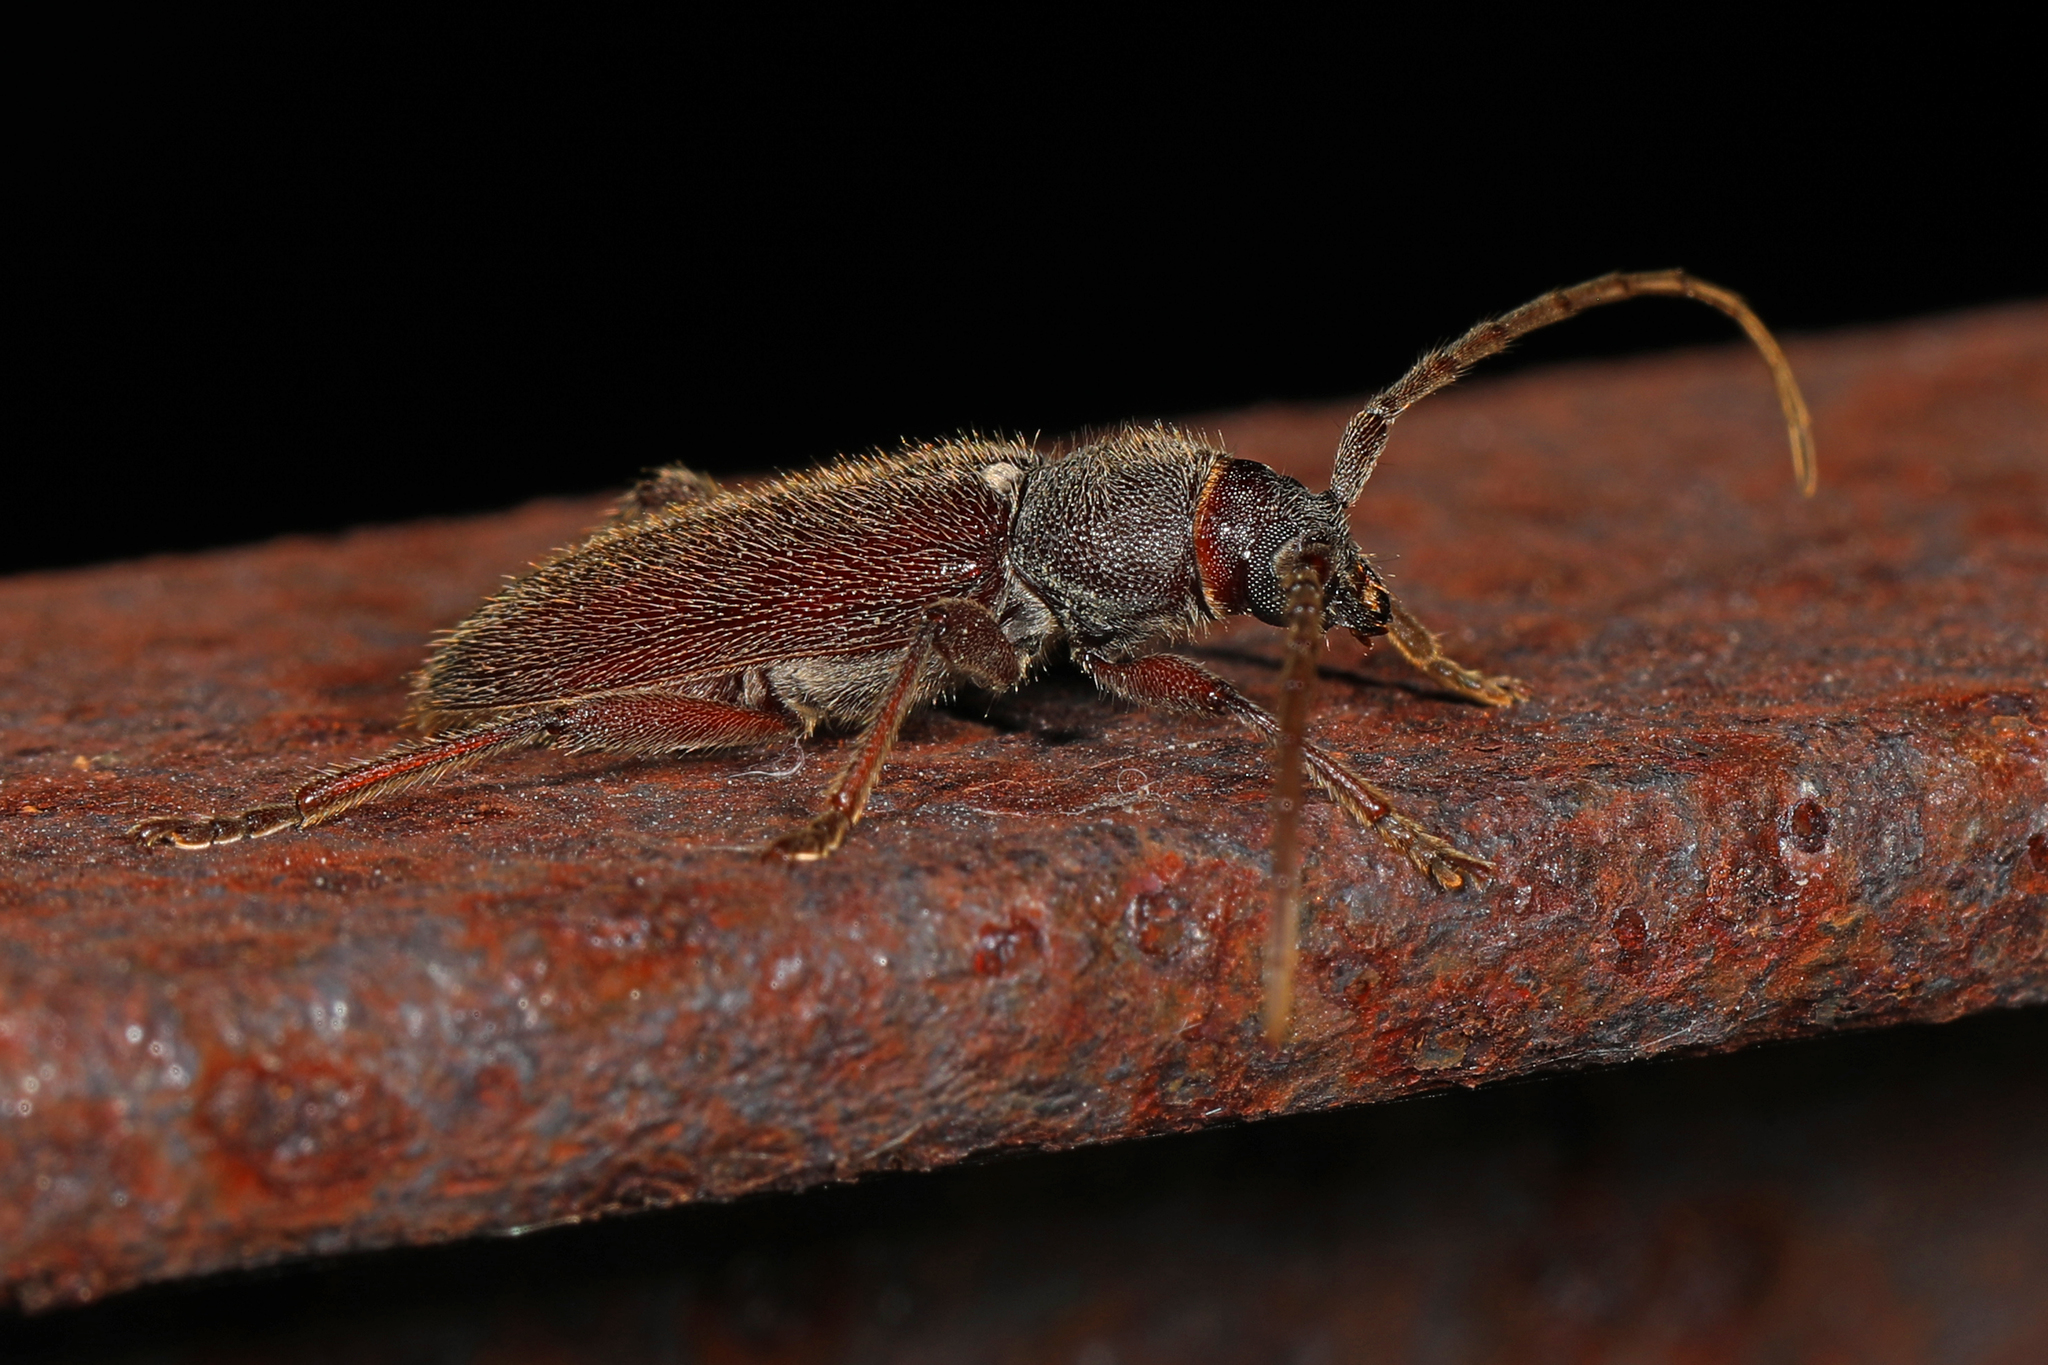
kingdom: Animalia
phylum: Arthropoda
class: Insecta
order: Coleoptera
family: Cerambycidae
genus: Anelaphus
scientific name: Anelaphus moestus
